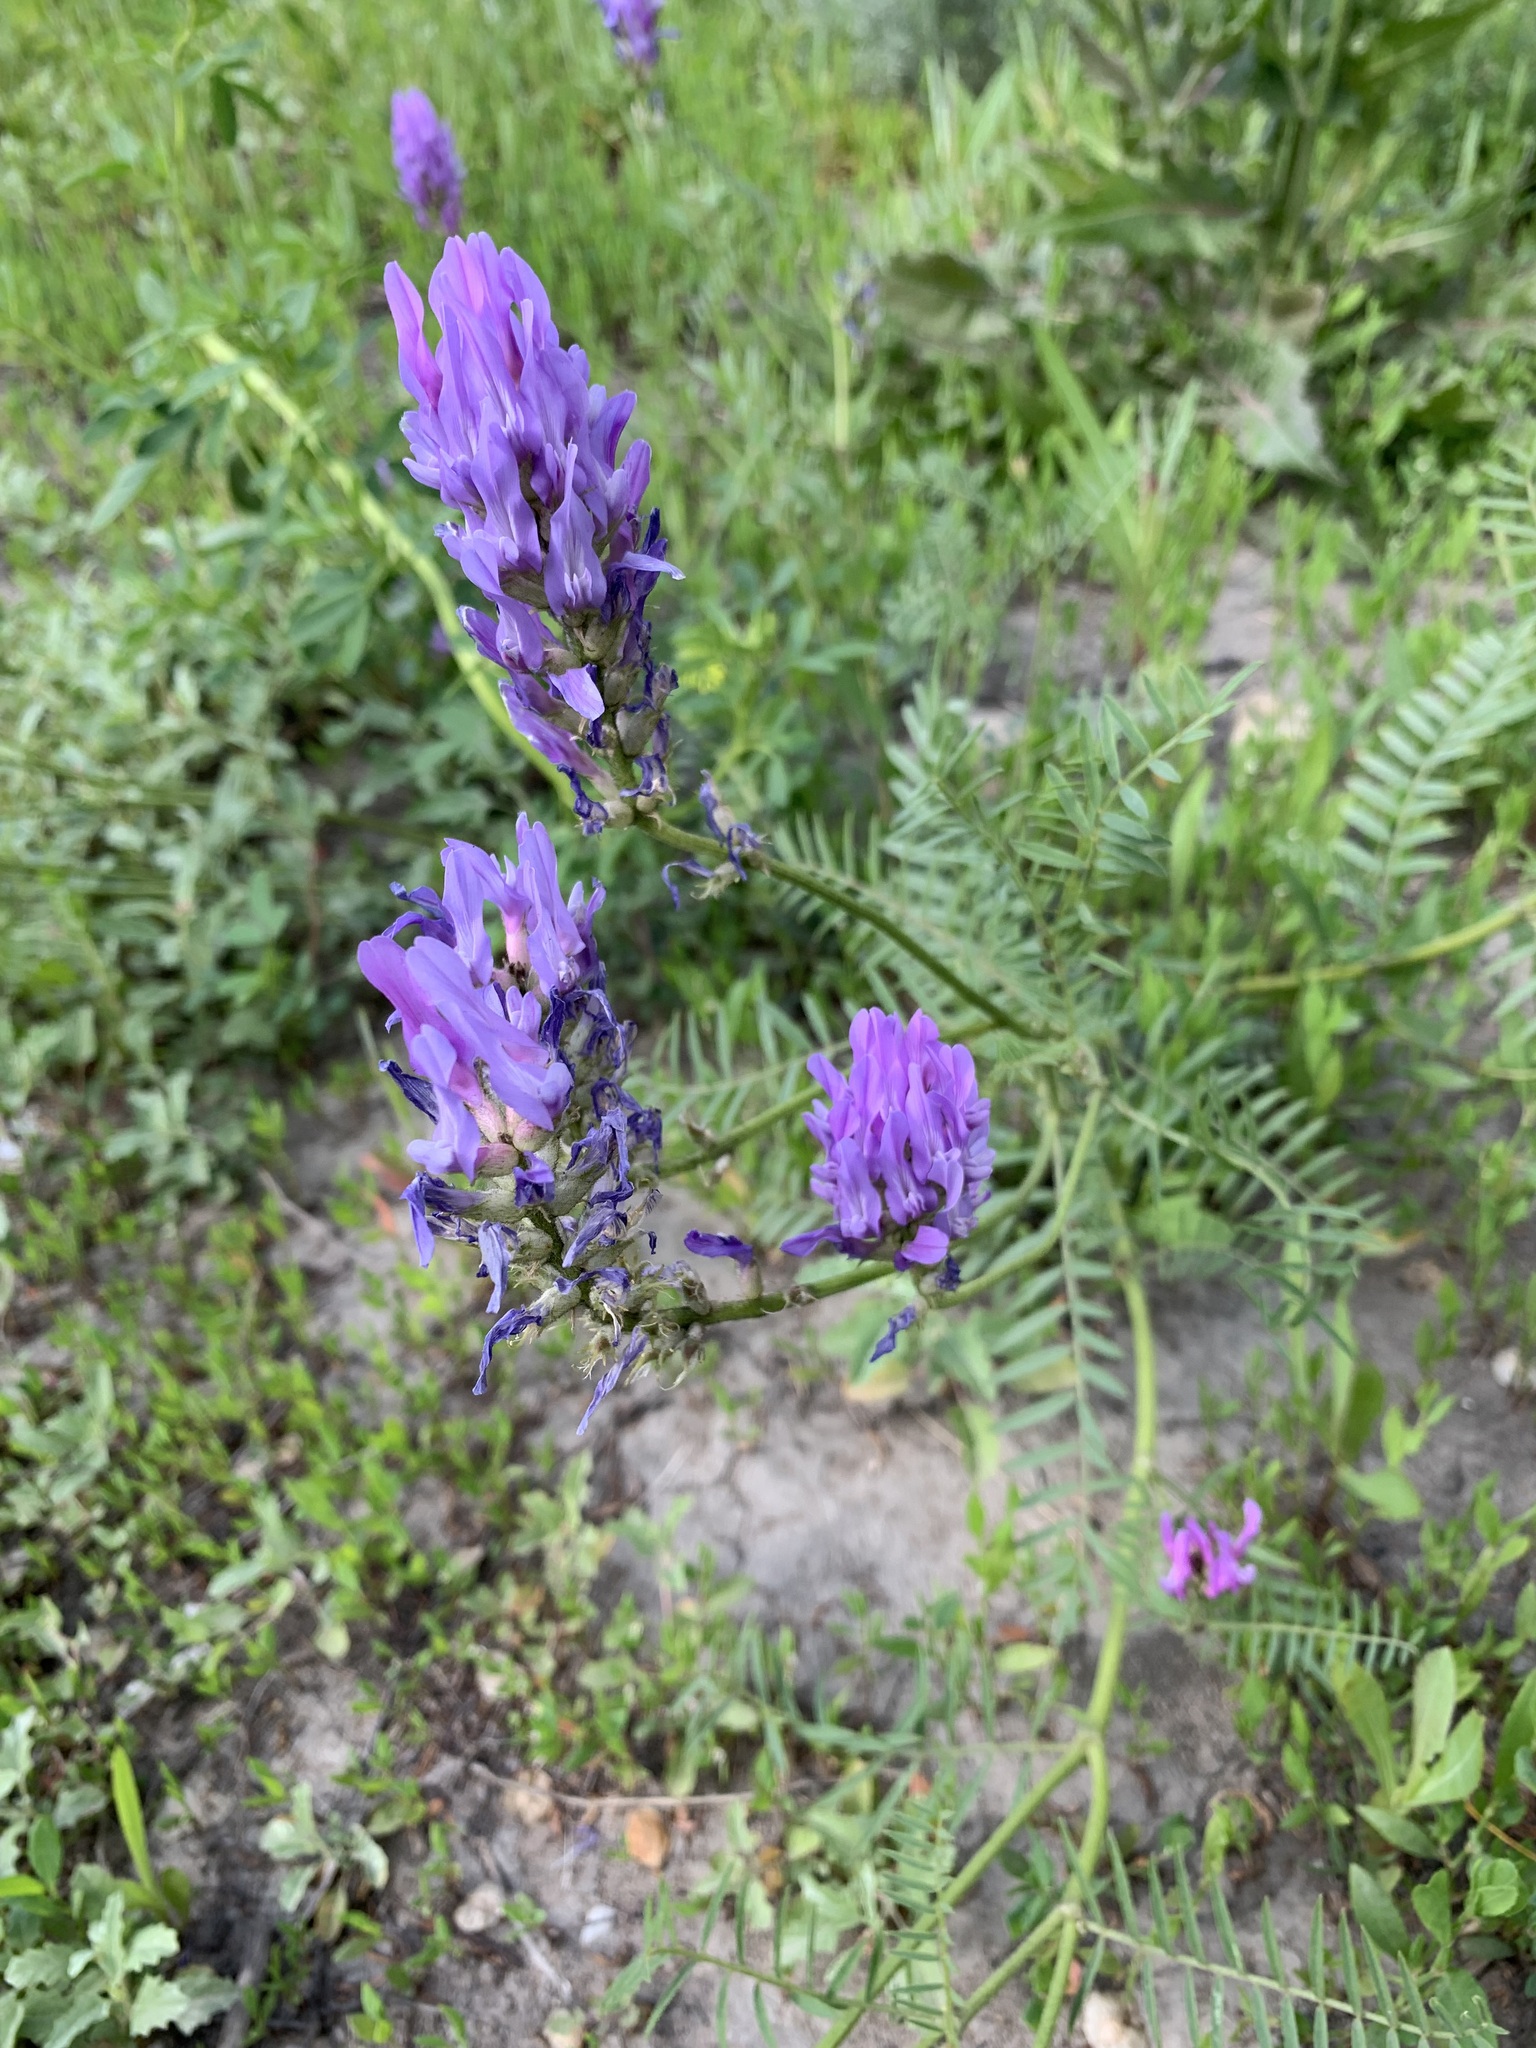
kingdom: Plantae
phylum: Tracheophyta
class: Magnoliopsida
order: Fabales
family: Fabaceae
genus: Astragalus
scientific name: Astragalus onobrychis
